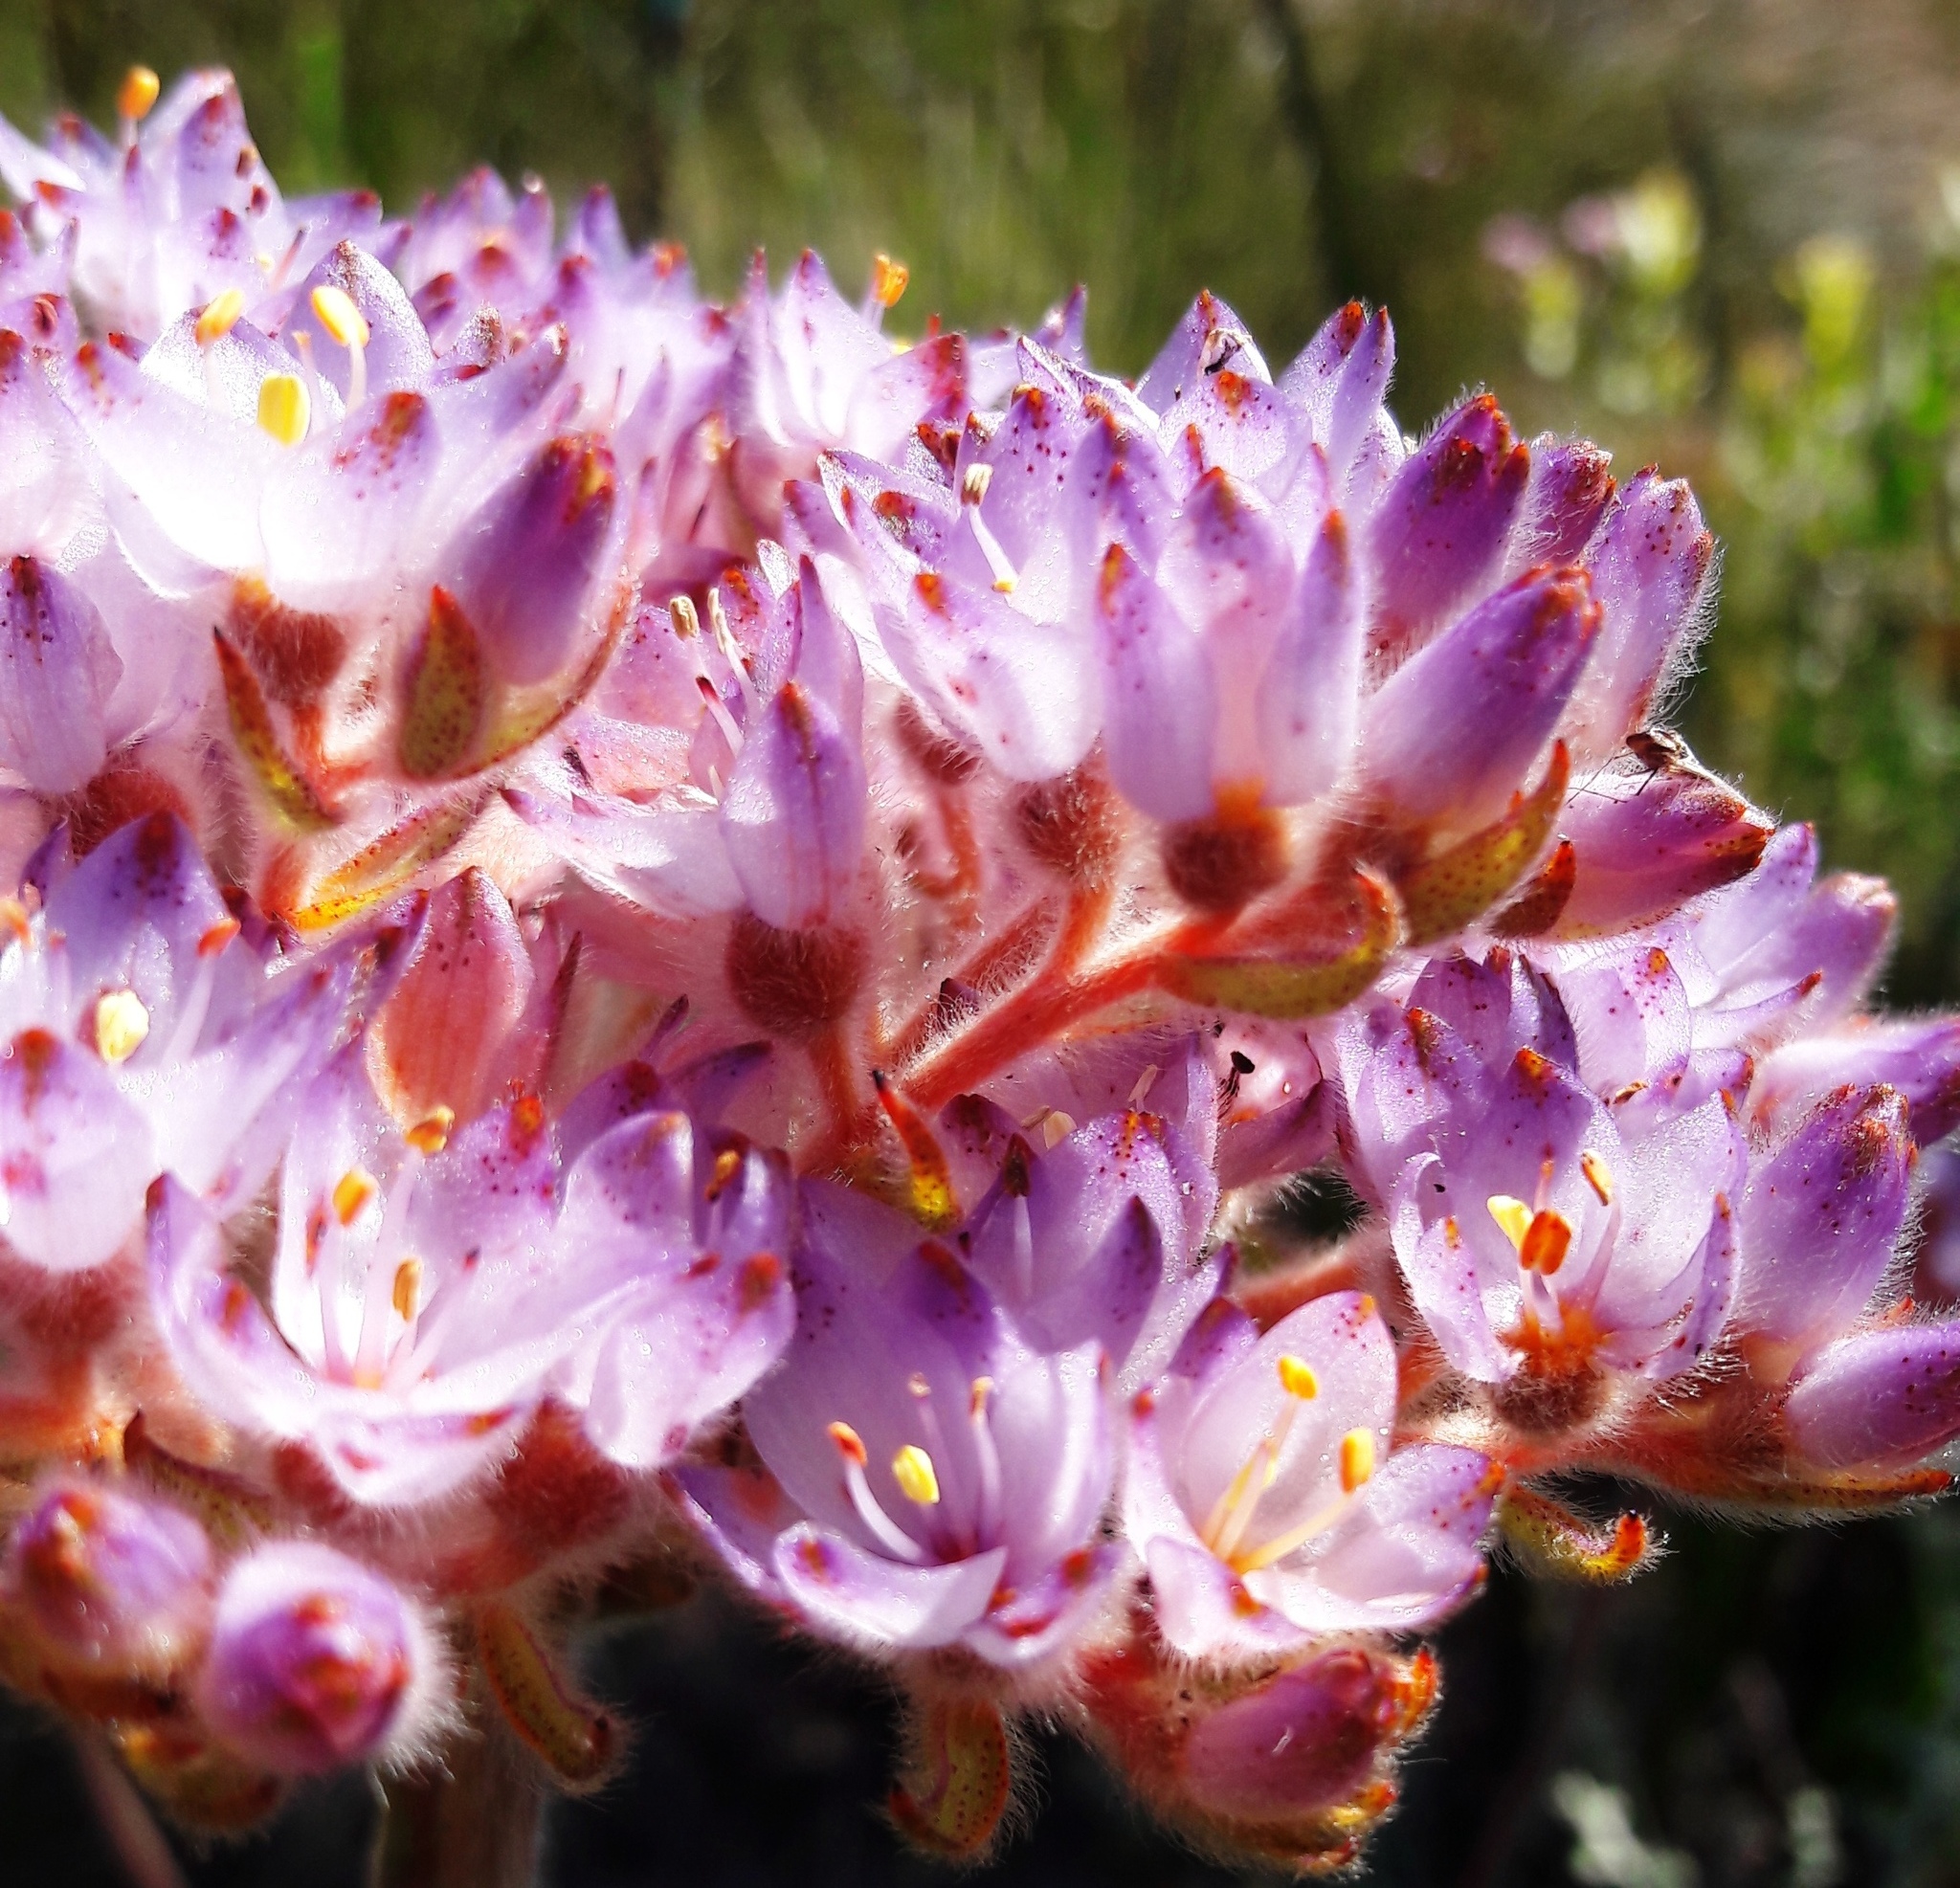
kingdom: Plantae
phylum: Tracheophyta
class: Liliopsida
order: Commelinales
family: Haemodoraceae
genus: Dilatris
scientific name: Dilatris corymbosa
